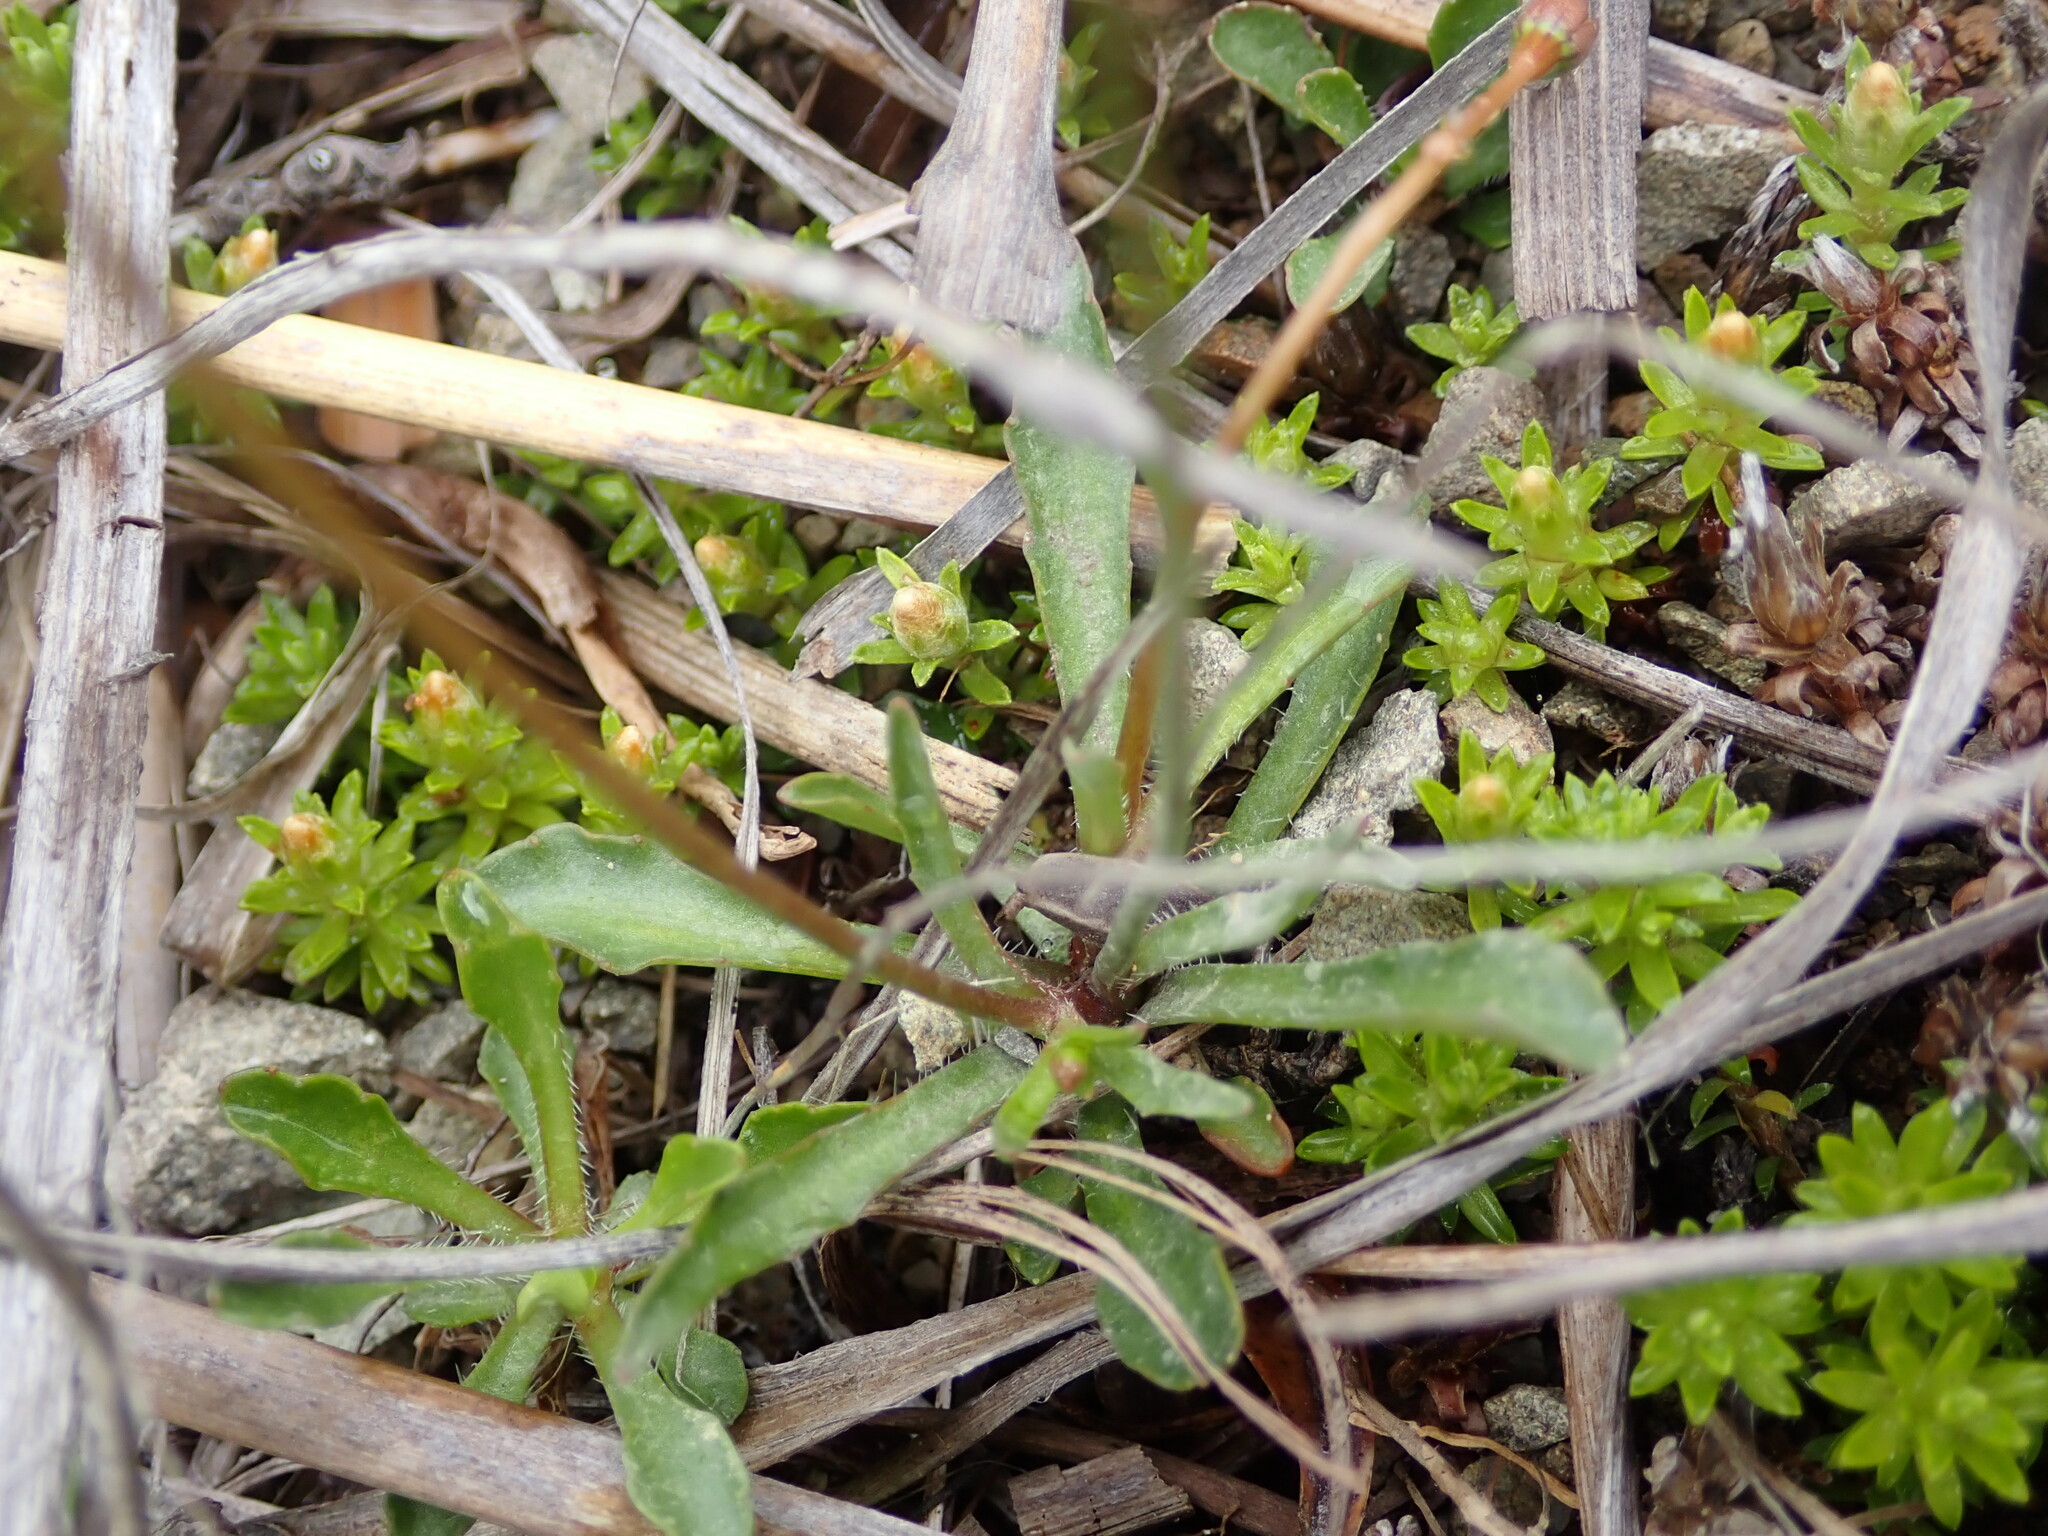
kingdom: Plantae
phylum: Tracheophyta
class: Magnoliopsida
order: Asterales
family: Campanulaceae
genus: Wahlenbergia
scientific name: Wahlenbergia albomarginata
